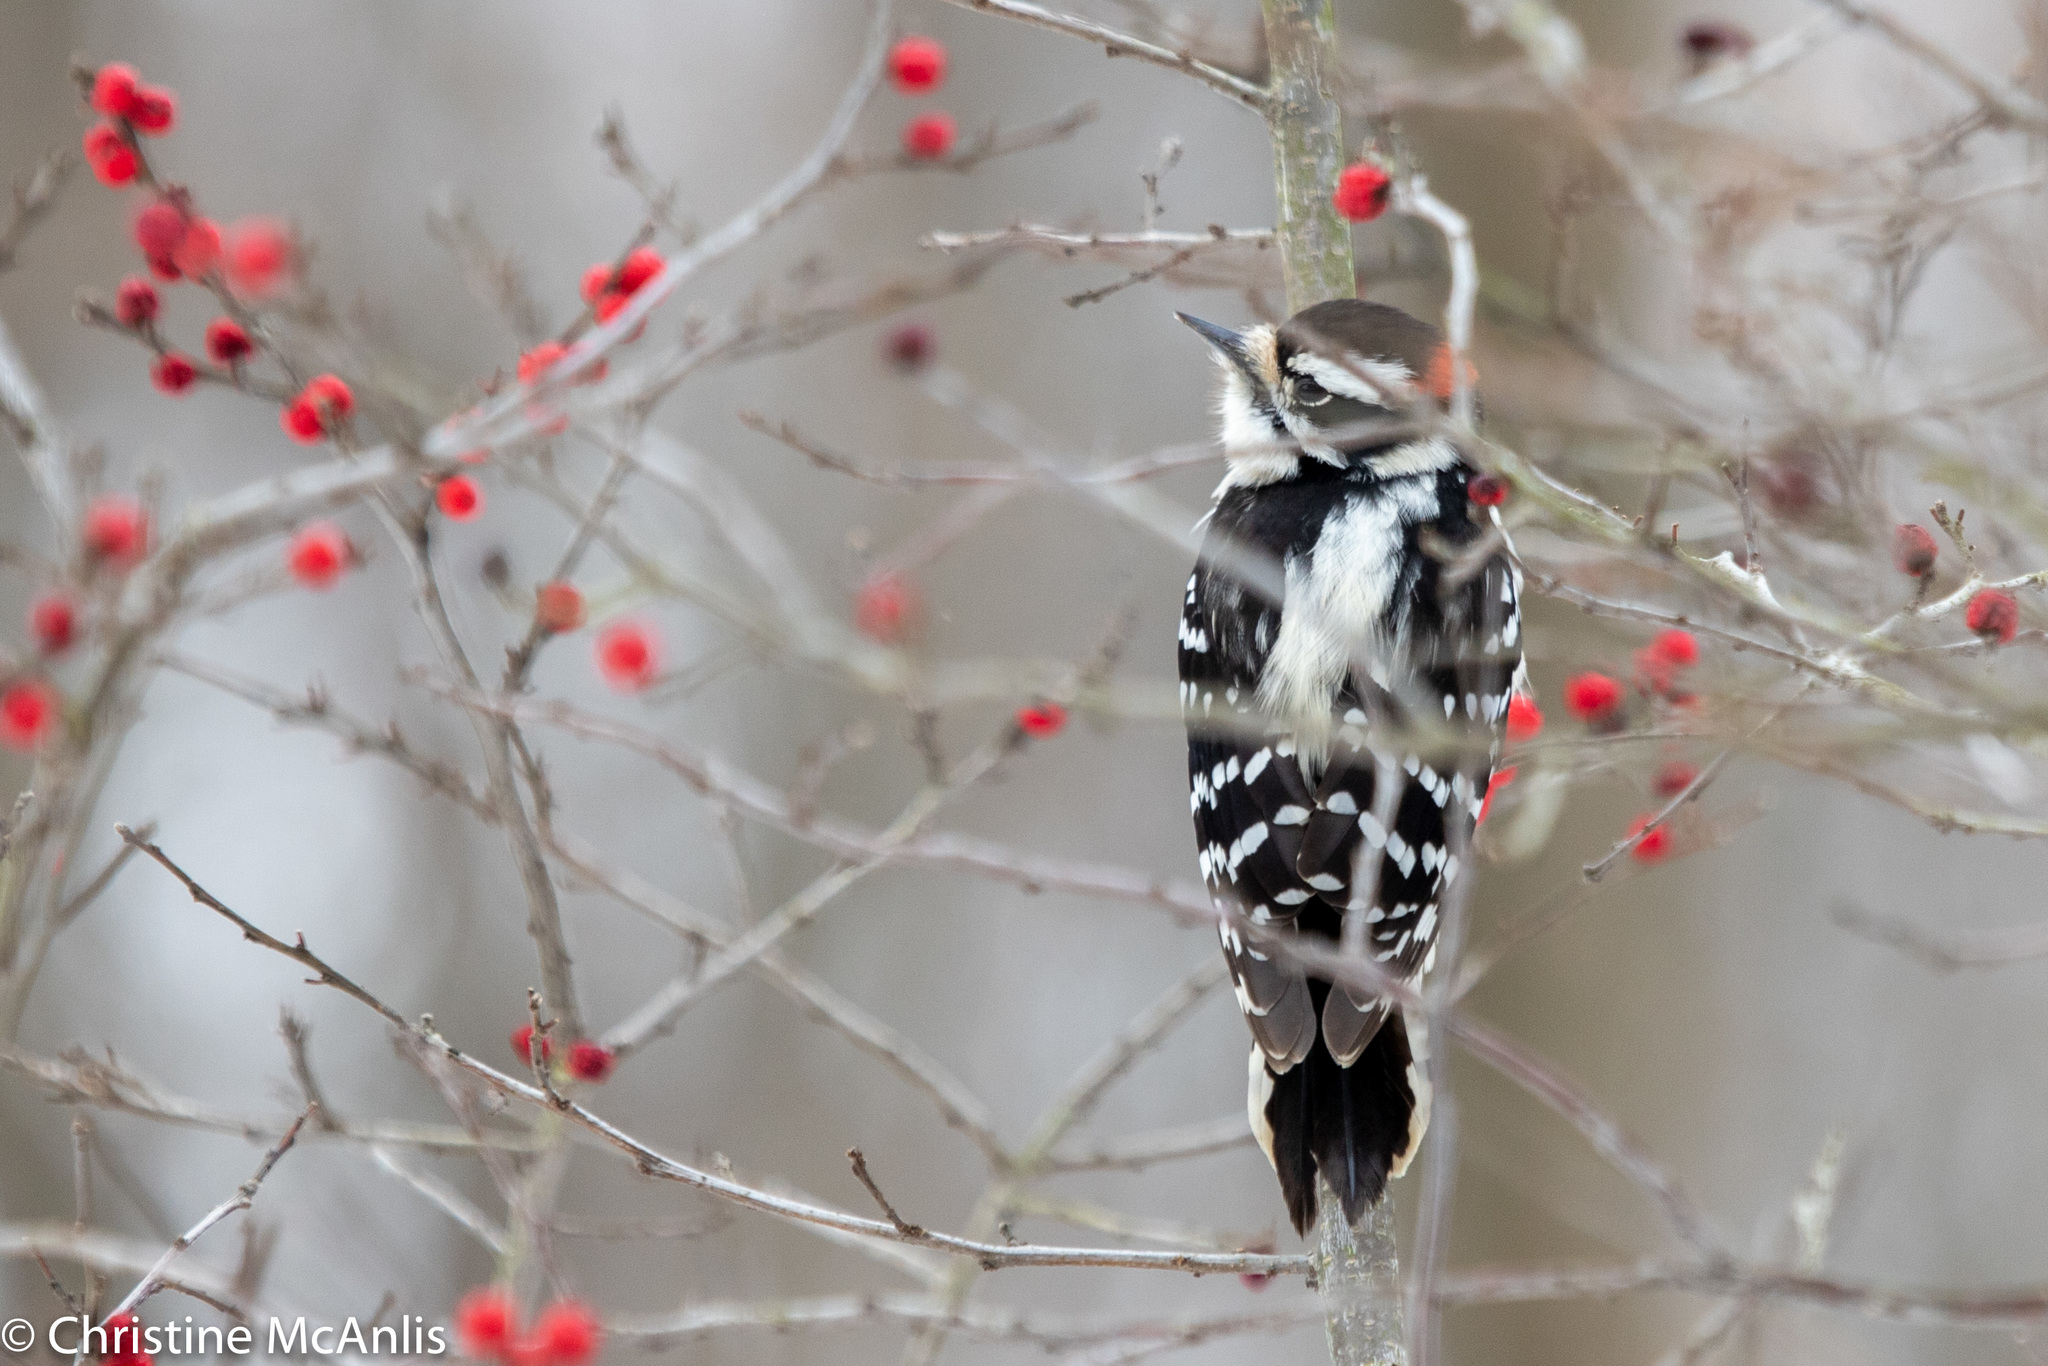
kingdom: Animalia
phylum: Chordata
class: Aves
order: Piciformes
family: Picidae
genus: Dryobates
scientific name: Dryobates pubescens
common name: Downy woodpecker
